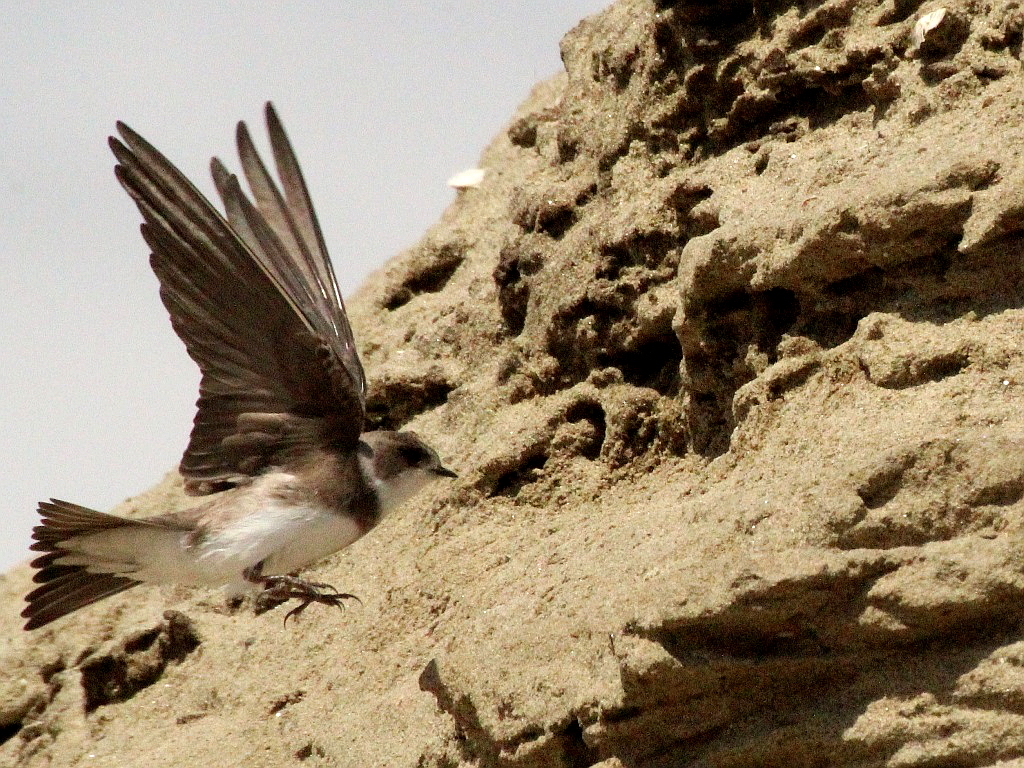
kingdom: Animalia
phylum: Chordata
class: Aves
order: Passeriformes
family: Hirundinidae
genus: Riparia
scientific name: Riparia riparia
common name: Sand martin
